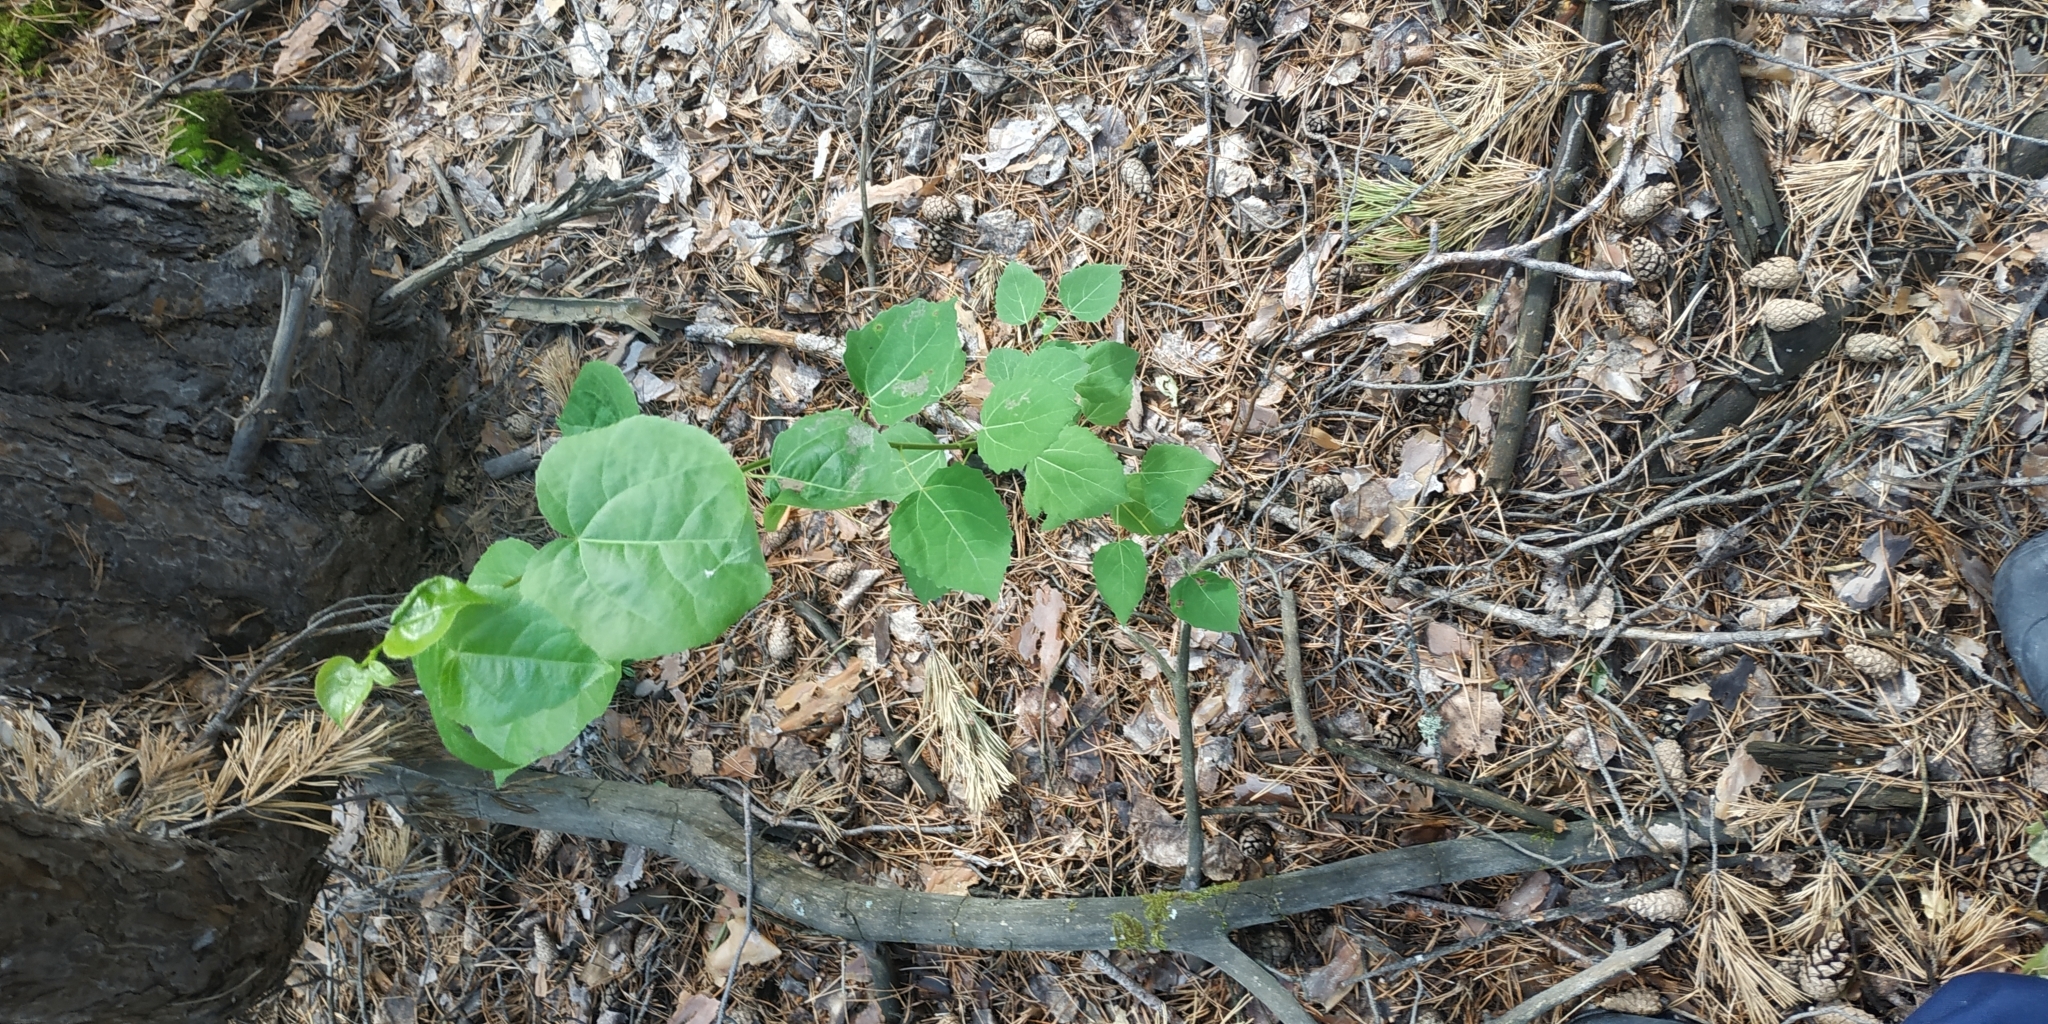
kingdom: Plantae
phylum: Tracheophyta
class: Magnoliopsida
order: Malpighiales
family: Salicaceae
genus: Populus
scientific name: Populus tremula
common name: European aspen
